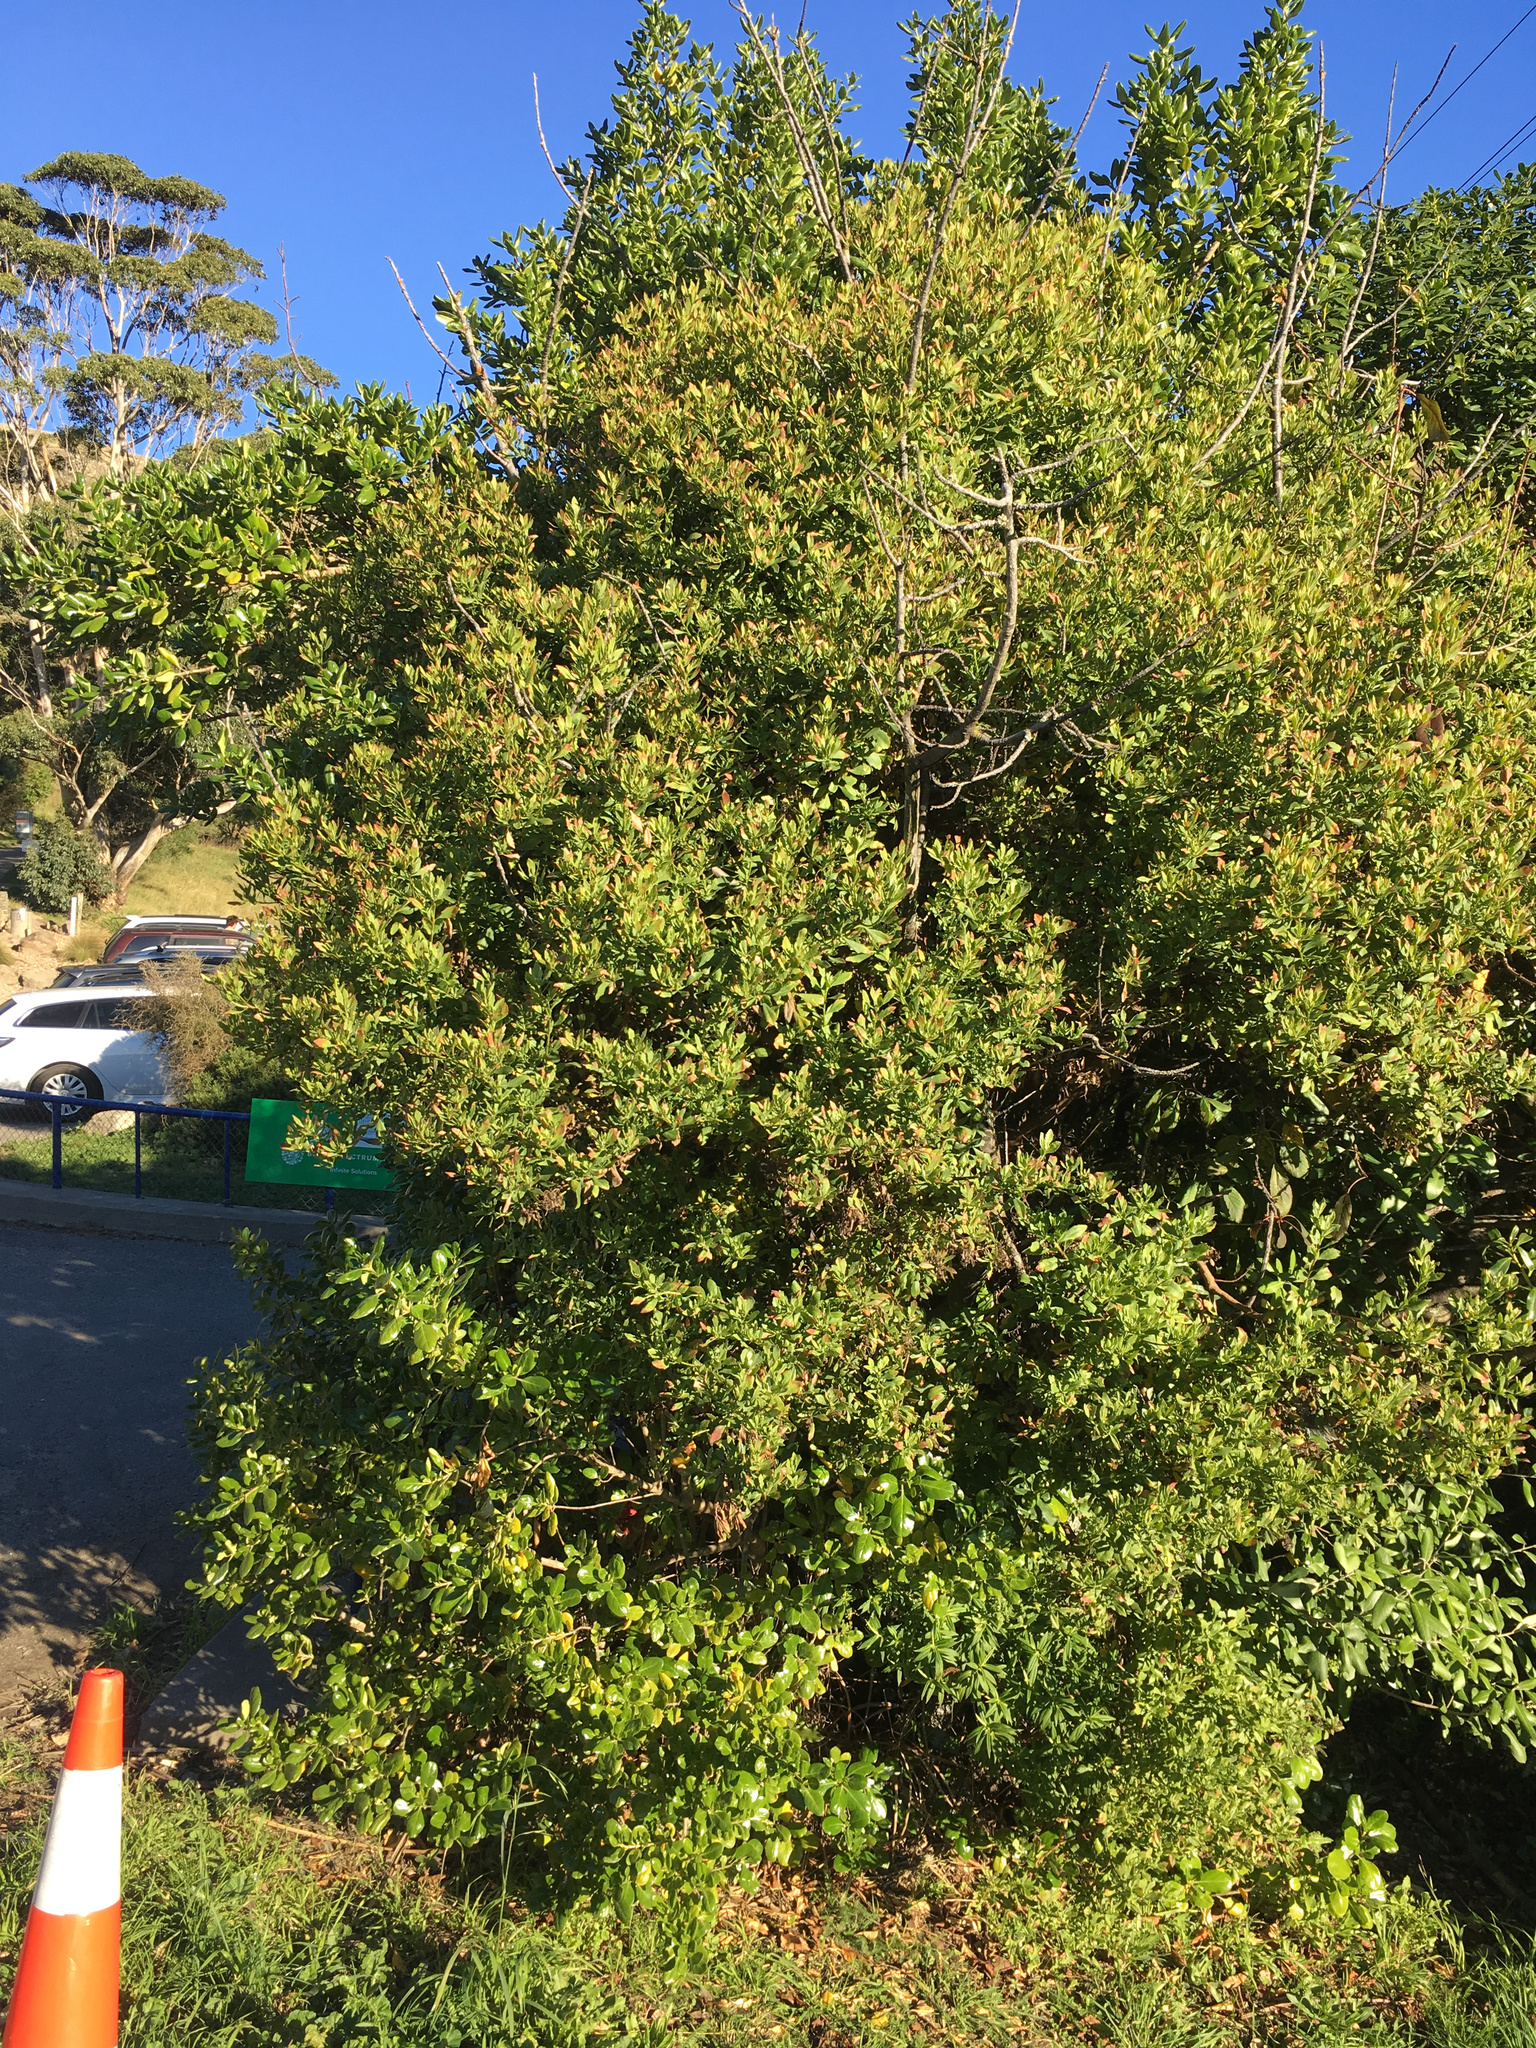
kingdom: Plantae
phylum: Tracheophyta
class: Magnoliopsida
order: Asterales
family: Asteraceae
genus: Osteospermum
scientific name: Osteospermum moniliferum
